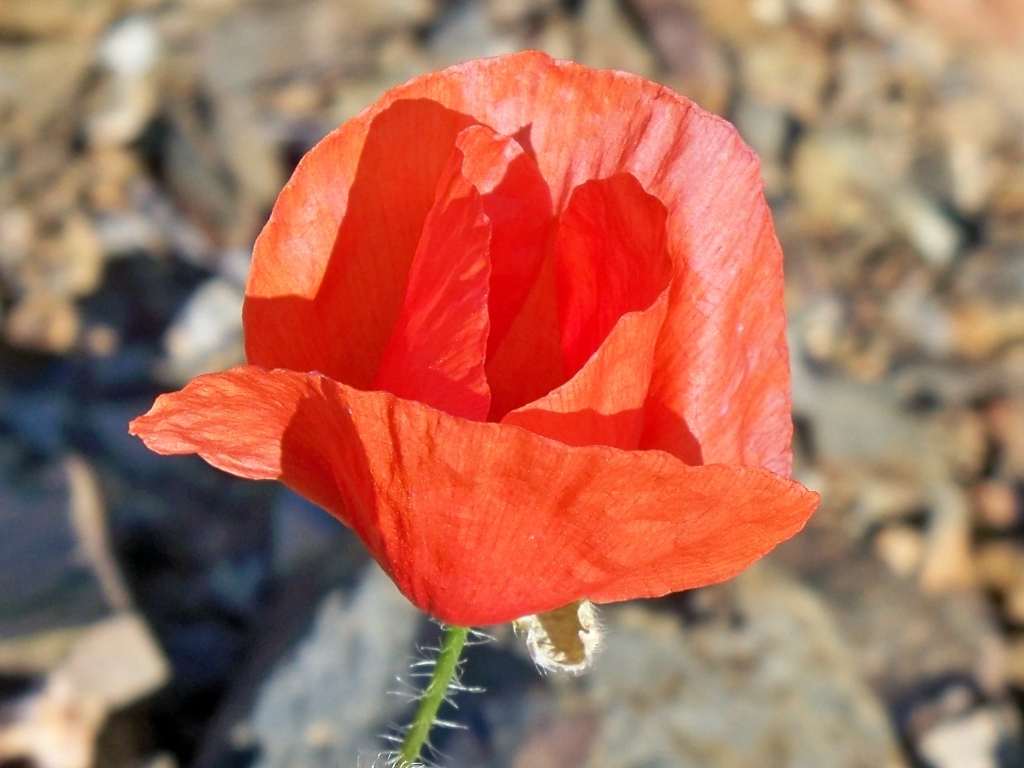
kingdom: Plantae
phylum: Tracheophyta
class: Magnoliopsida
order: Ranunculales
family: Papaveraceae
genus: Papaver
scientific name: Papaver rhoeas
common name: Corn poppy
